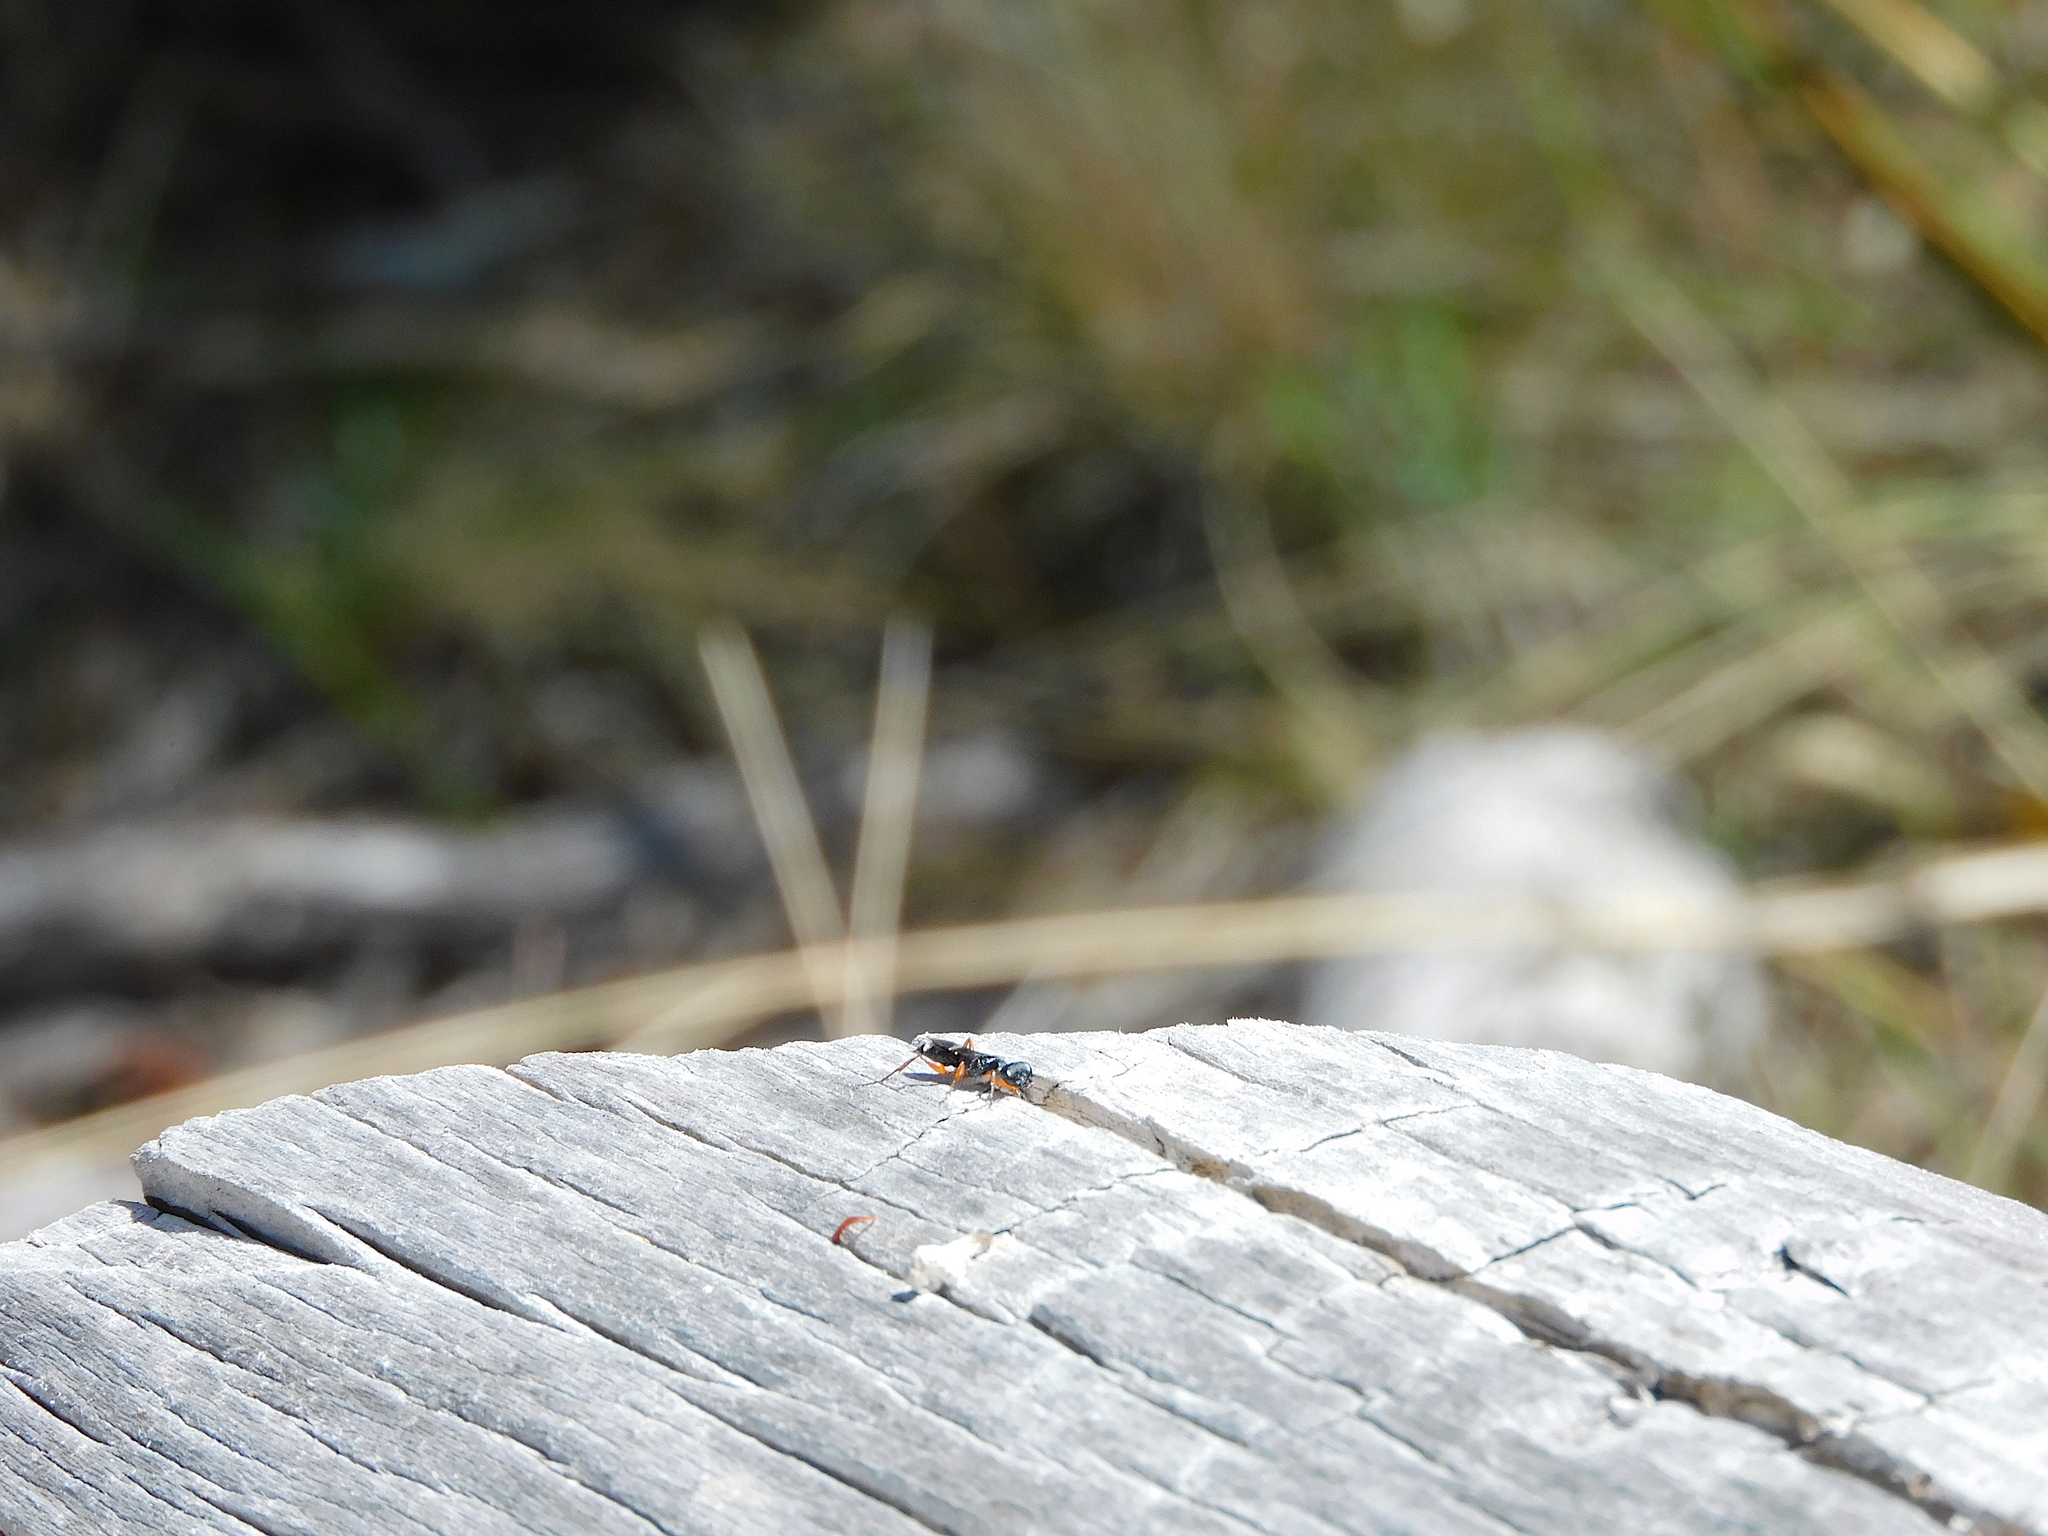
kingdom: Animalia
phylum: Arthropoda
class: Insecta
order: Hymenoptera
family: Ampulicidae
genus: Aphelotoma
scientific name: Aphelotoma tasmanica
